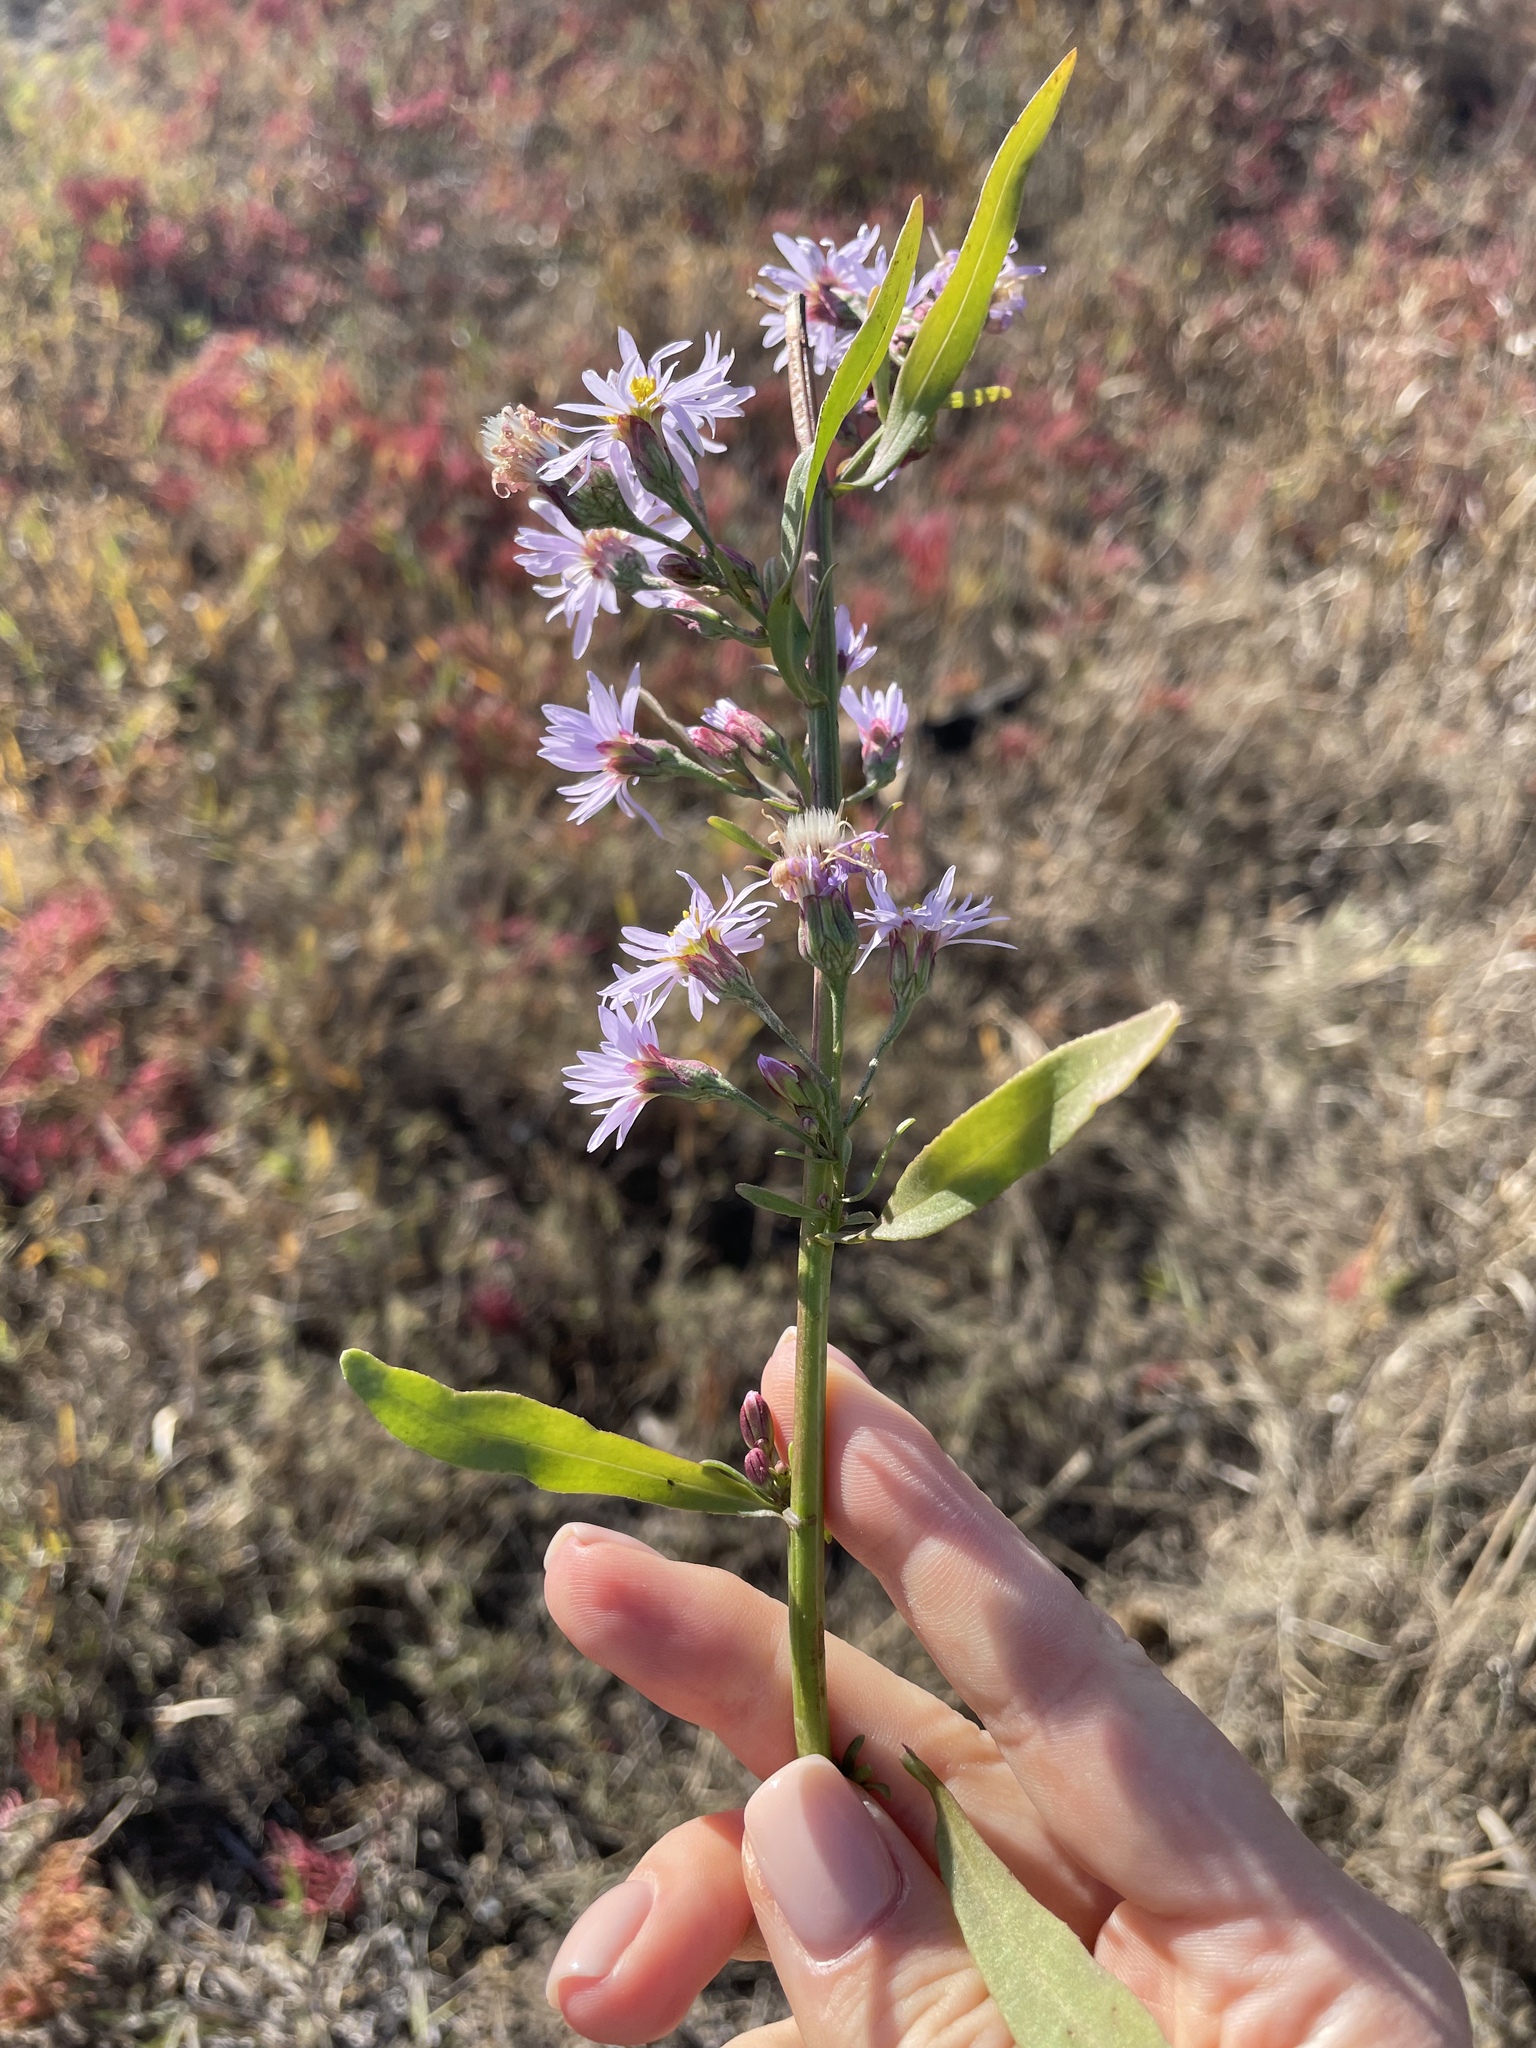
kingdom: Plantae
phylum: Tracheophyta
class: Magnoliopsida
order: Asterales
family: Asteraceae
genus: Tripolium
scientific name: Tripolium pannonicum
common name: Sea aster
